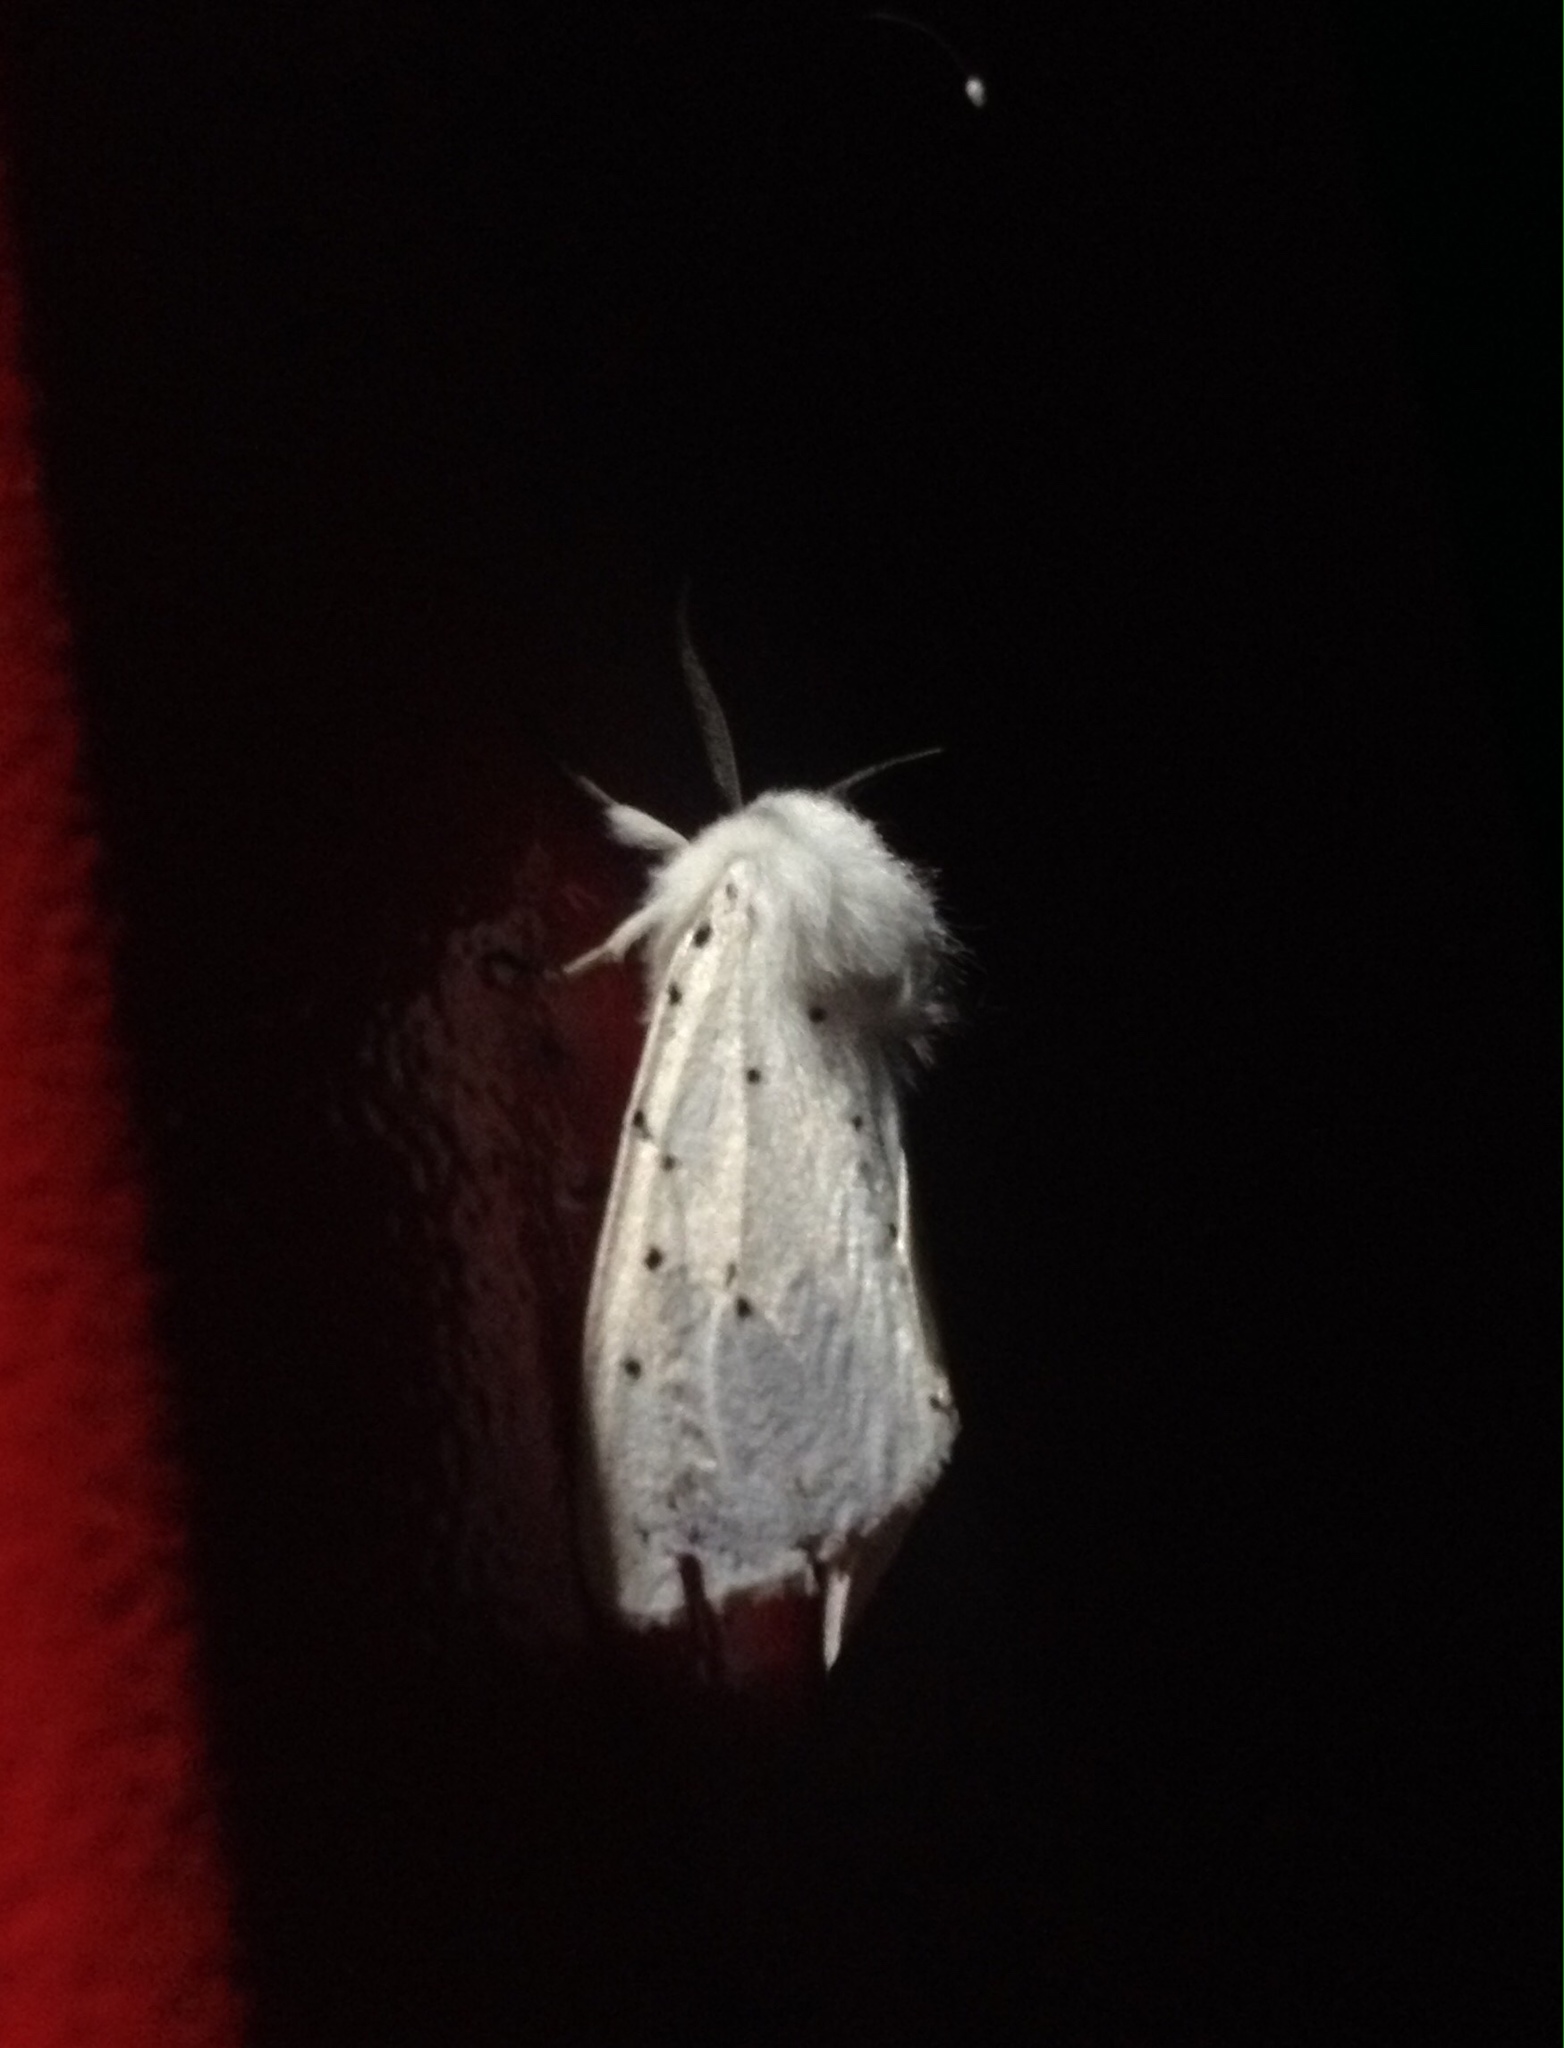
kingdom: Animalia
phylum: Arthropoda
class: Insecta
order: Lepidoptera
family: Erebidae
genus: Spilosoma
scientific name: Spilosoma lubricipeda
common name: White ermine
